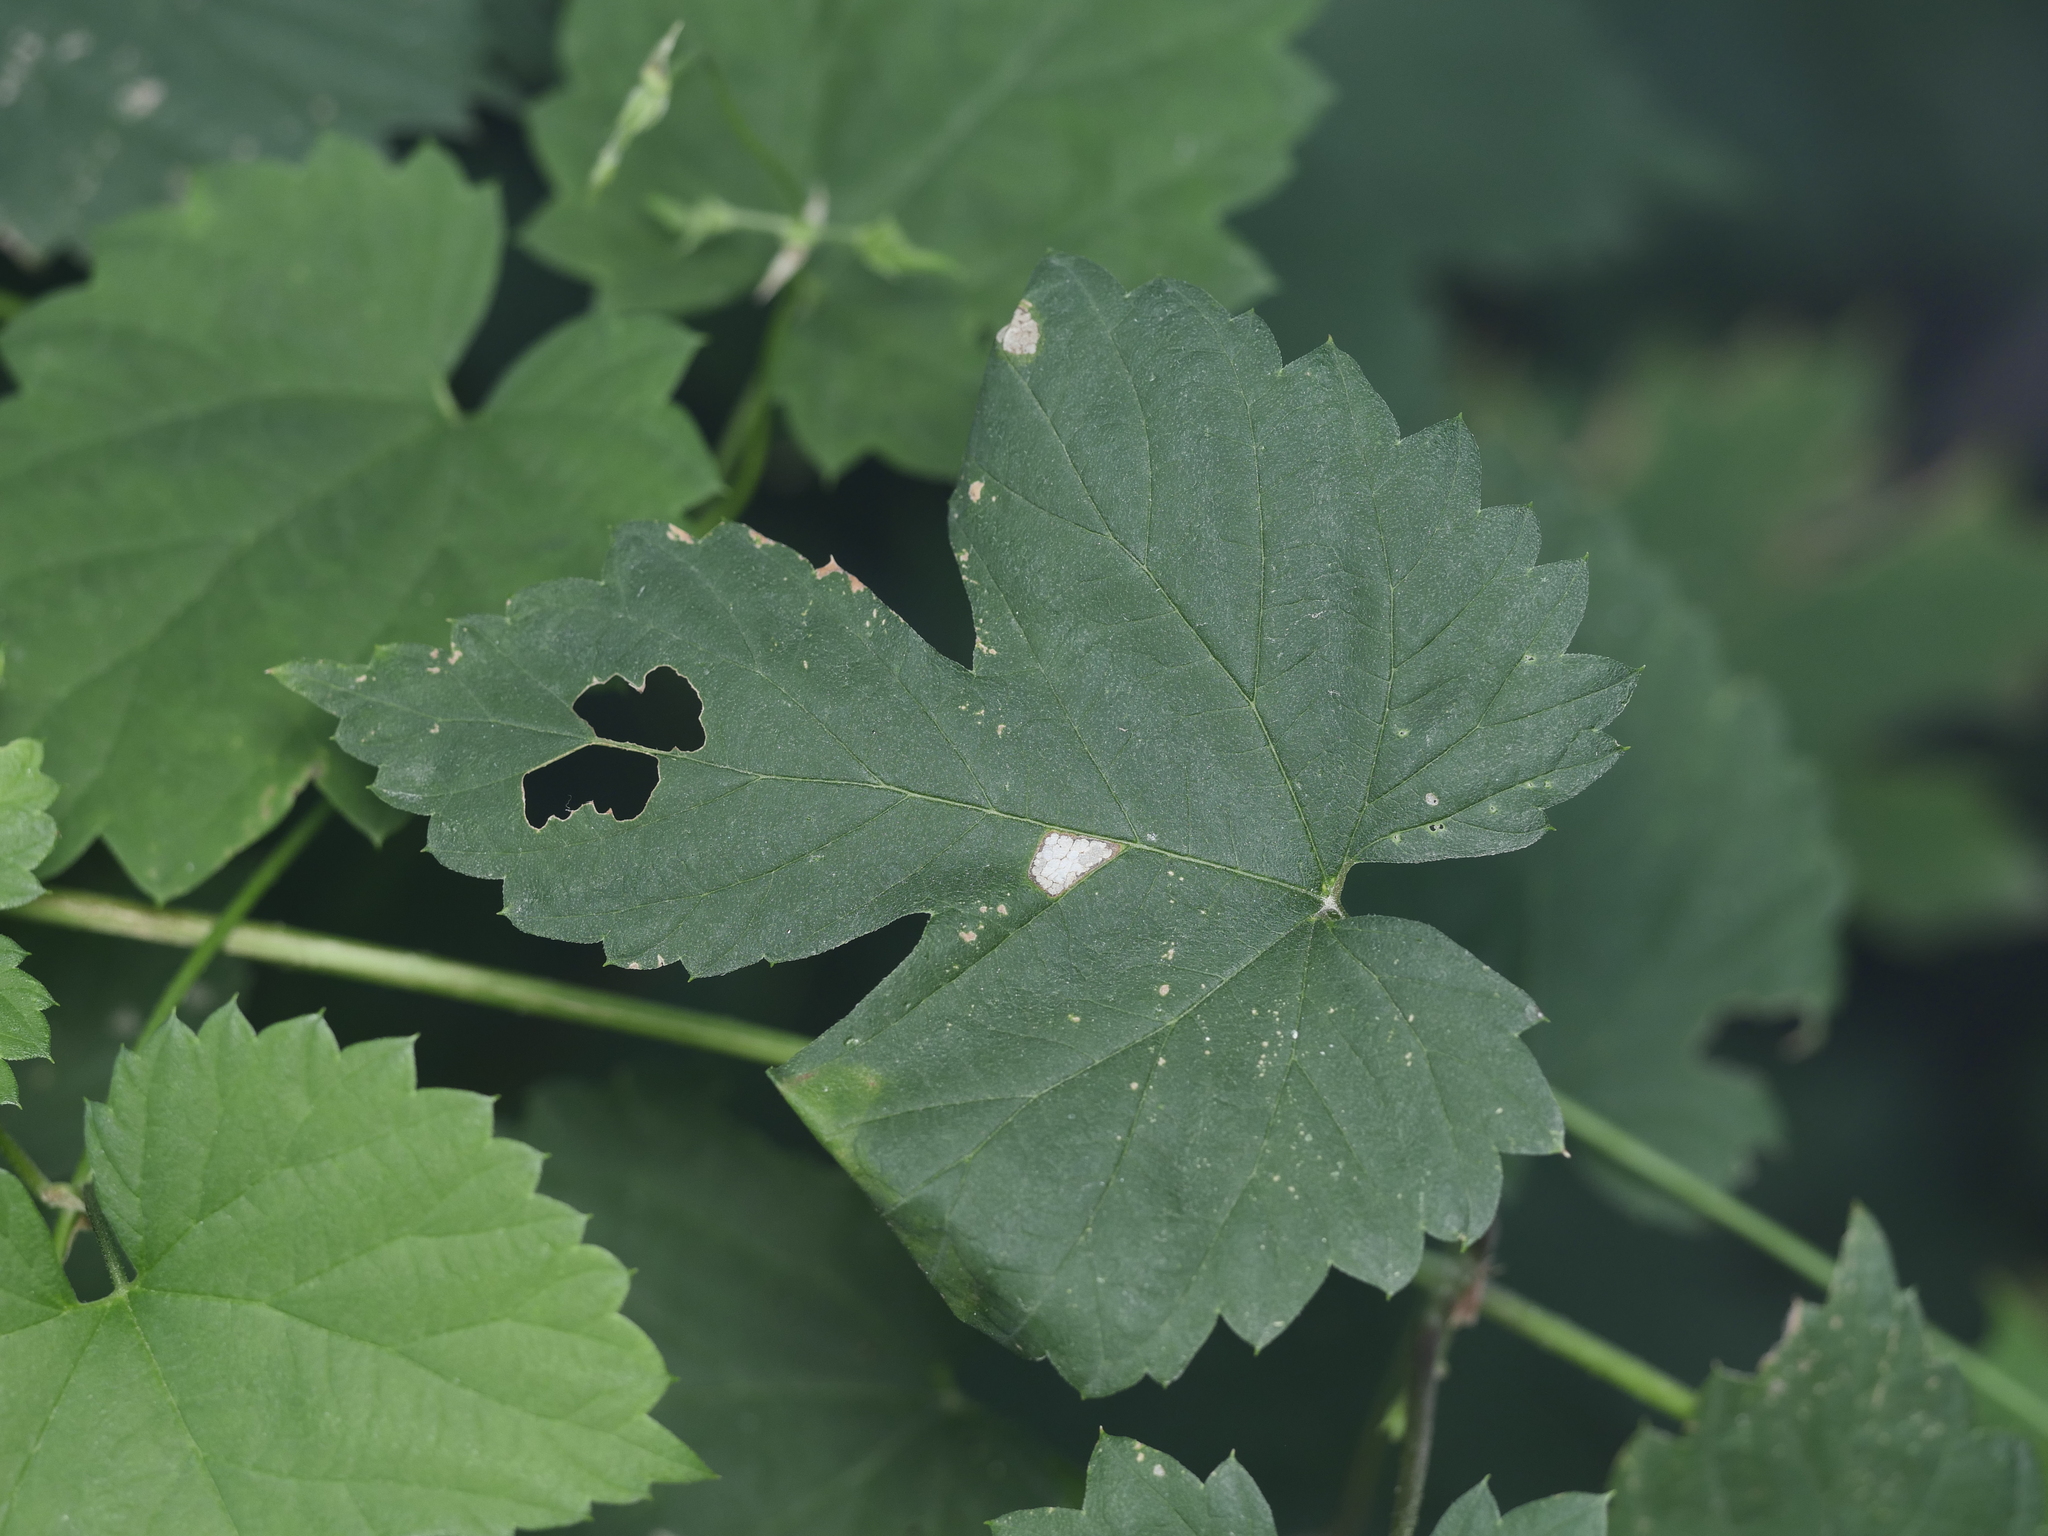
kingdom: Plantae
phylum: Tracheophyta
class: Magnoliopsida
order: Rosales
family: Cannabaceae
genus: Humulus
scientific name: Humulus lupulus
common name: Hop
